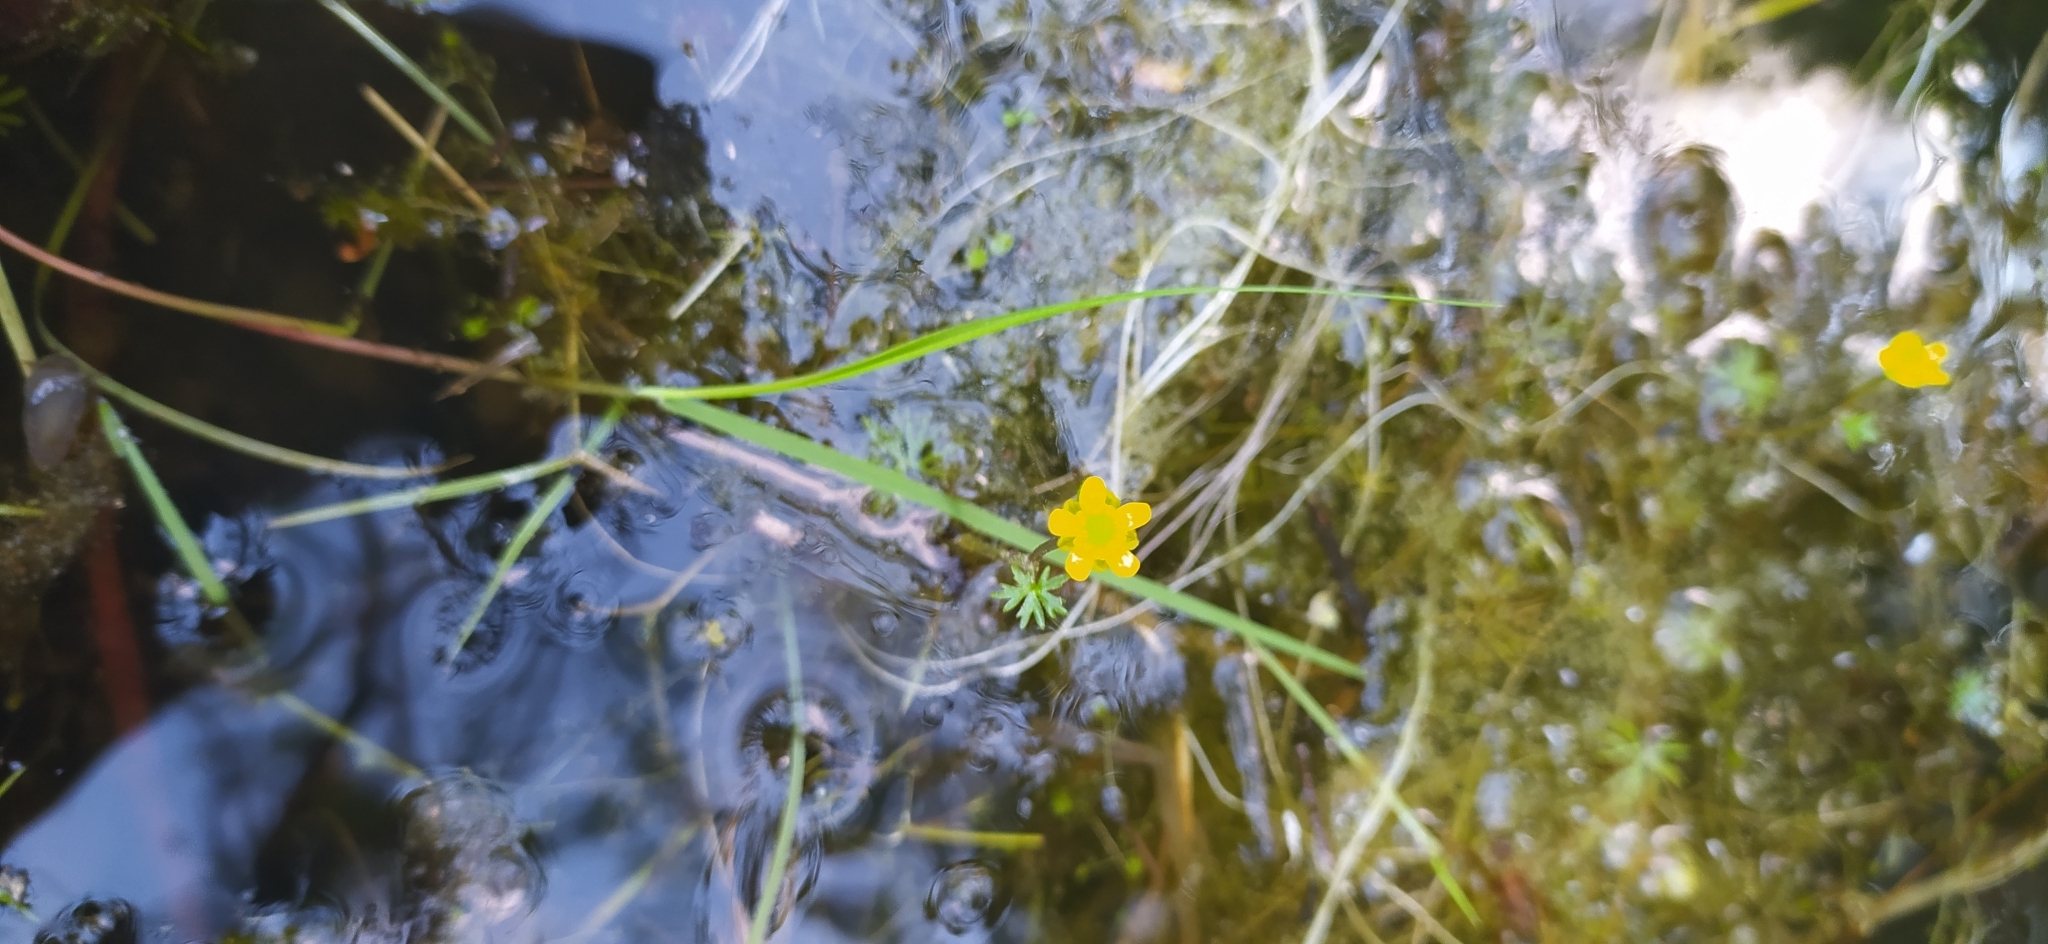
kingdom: Plantae
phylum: Tracheophyta
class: Magnoliopsida
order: Ranunculales
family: Ranunculaceae
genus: Ranunculus
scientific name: Ranunculus gmelinii
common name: Gmelin's buttercup
